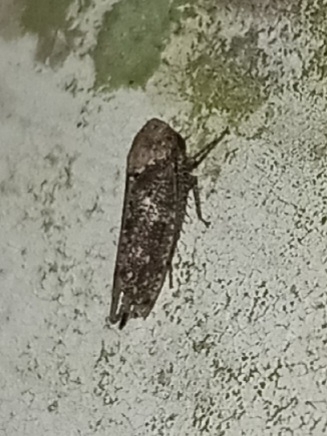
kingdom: Animalia
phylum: Arthropoda
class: Insecta
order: Hemiptera
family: Cicadellidae
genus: Paraphlepsius
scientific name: Paraphlepsius collitus
